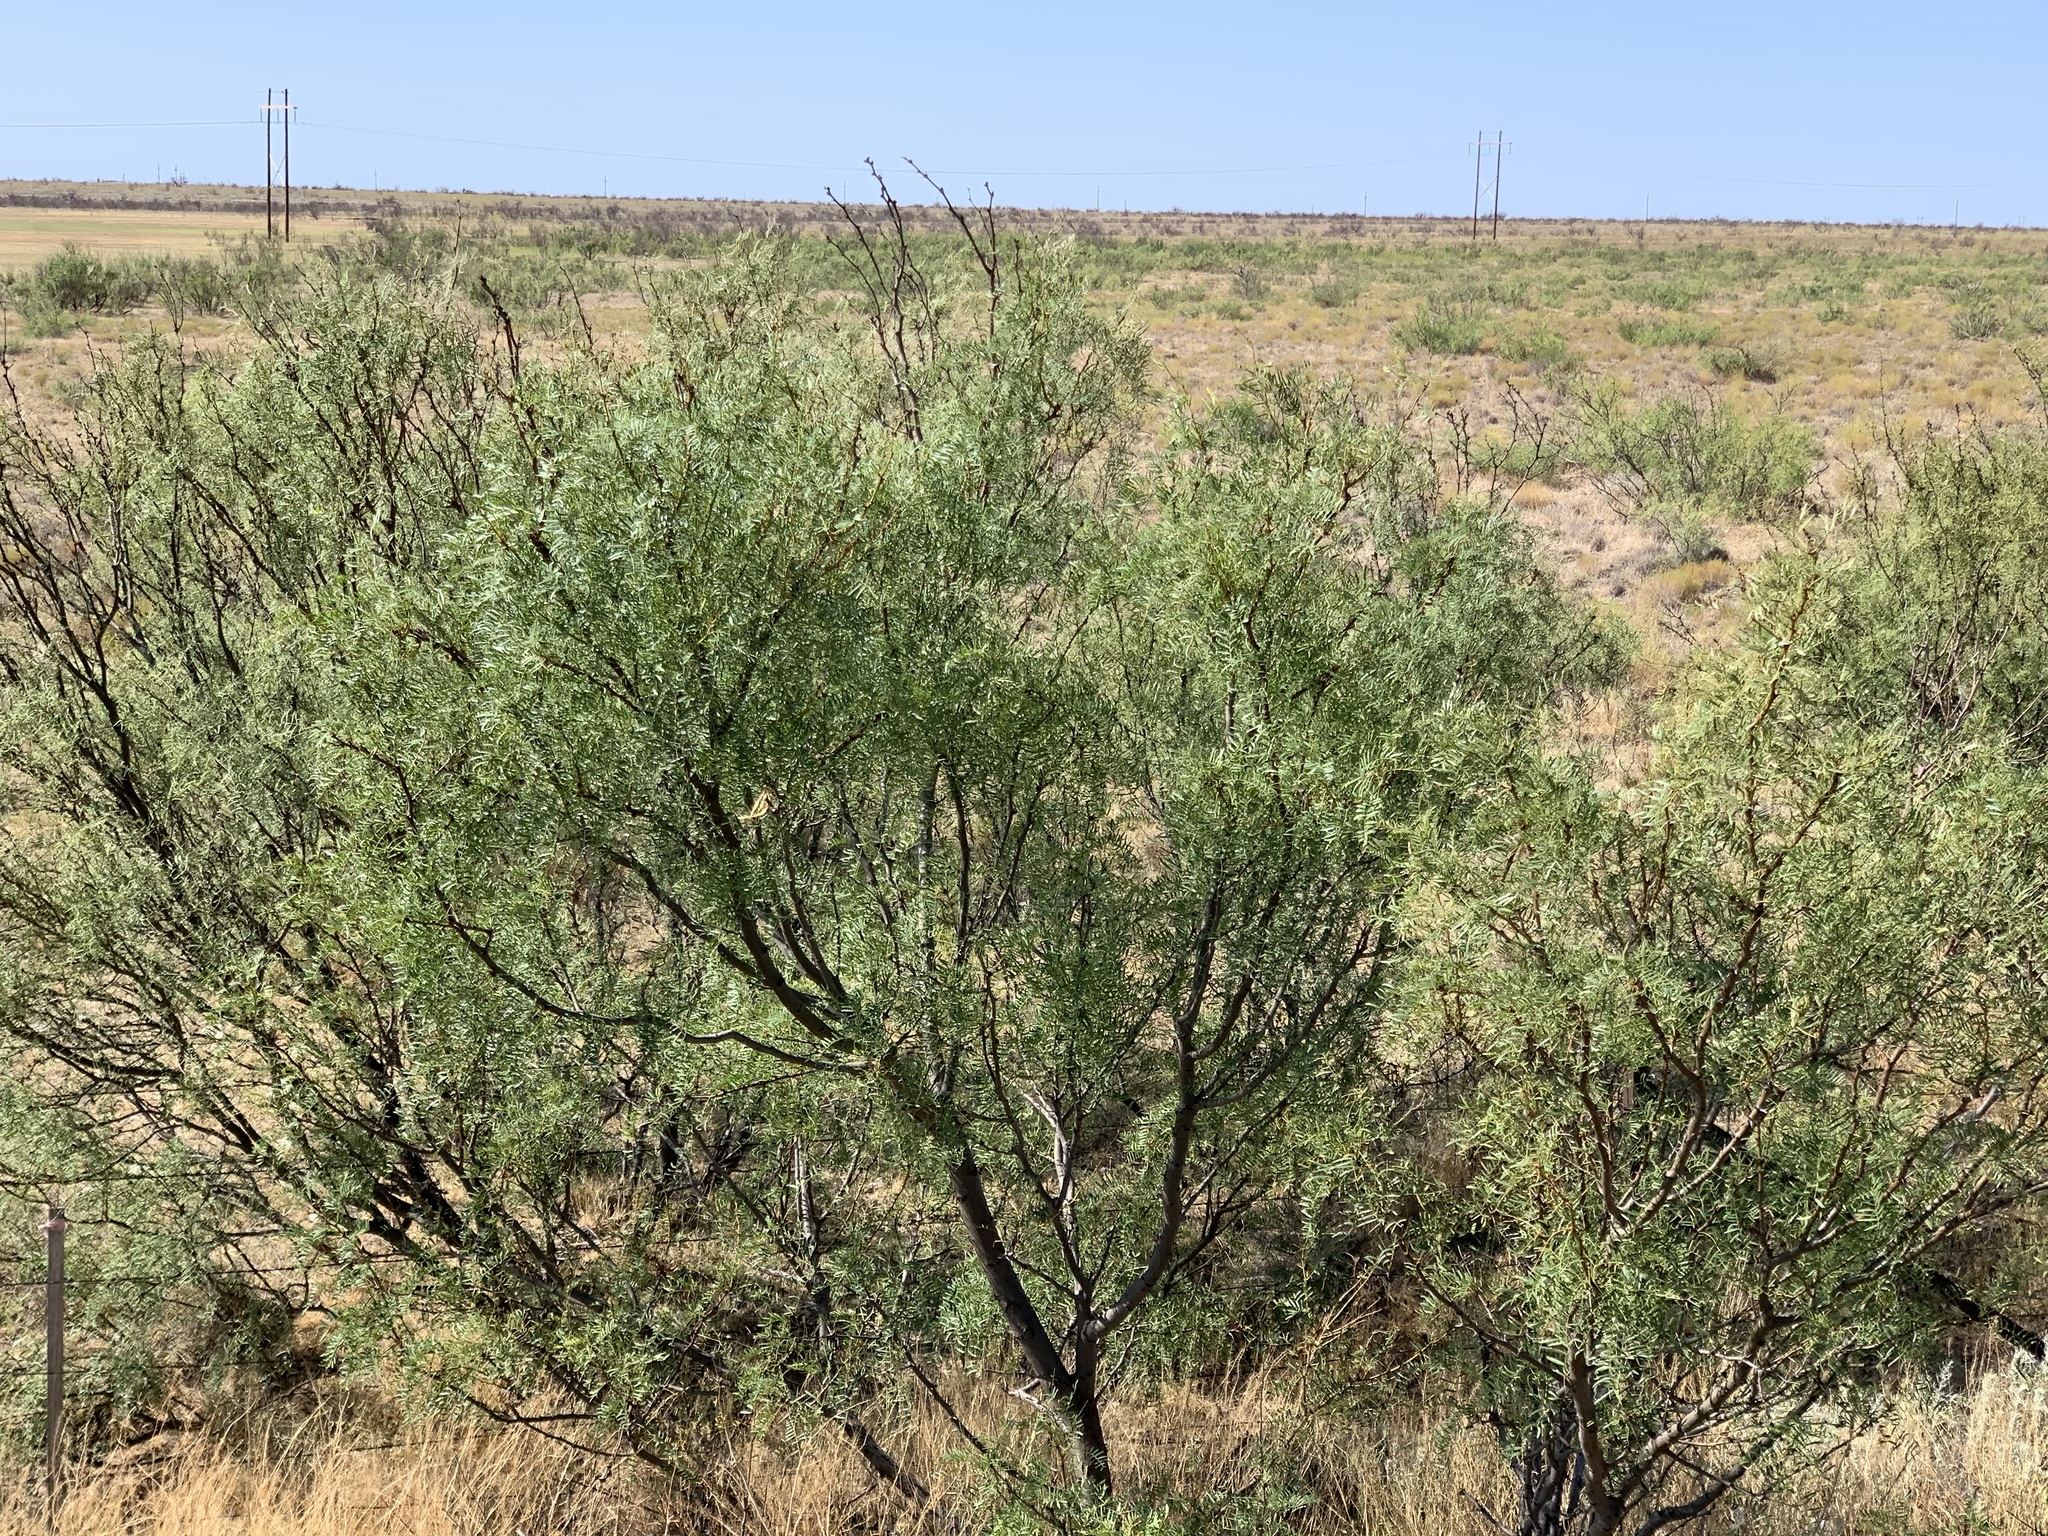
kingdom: Plantae
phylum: Tracheophyta
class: Magnoliopsida
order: Fabales
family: Fabaceae
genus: Prosopis
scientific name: Prosopis glandulosa
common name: Honey mesquite
